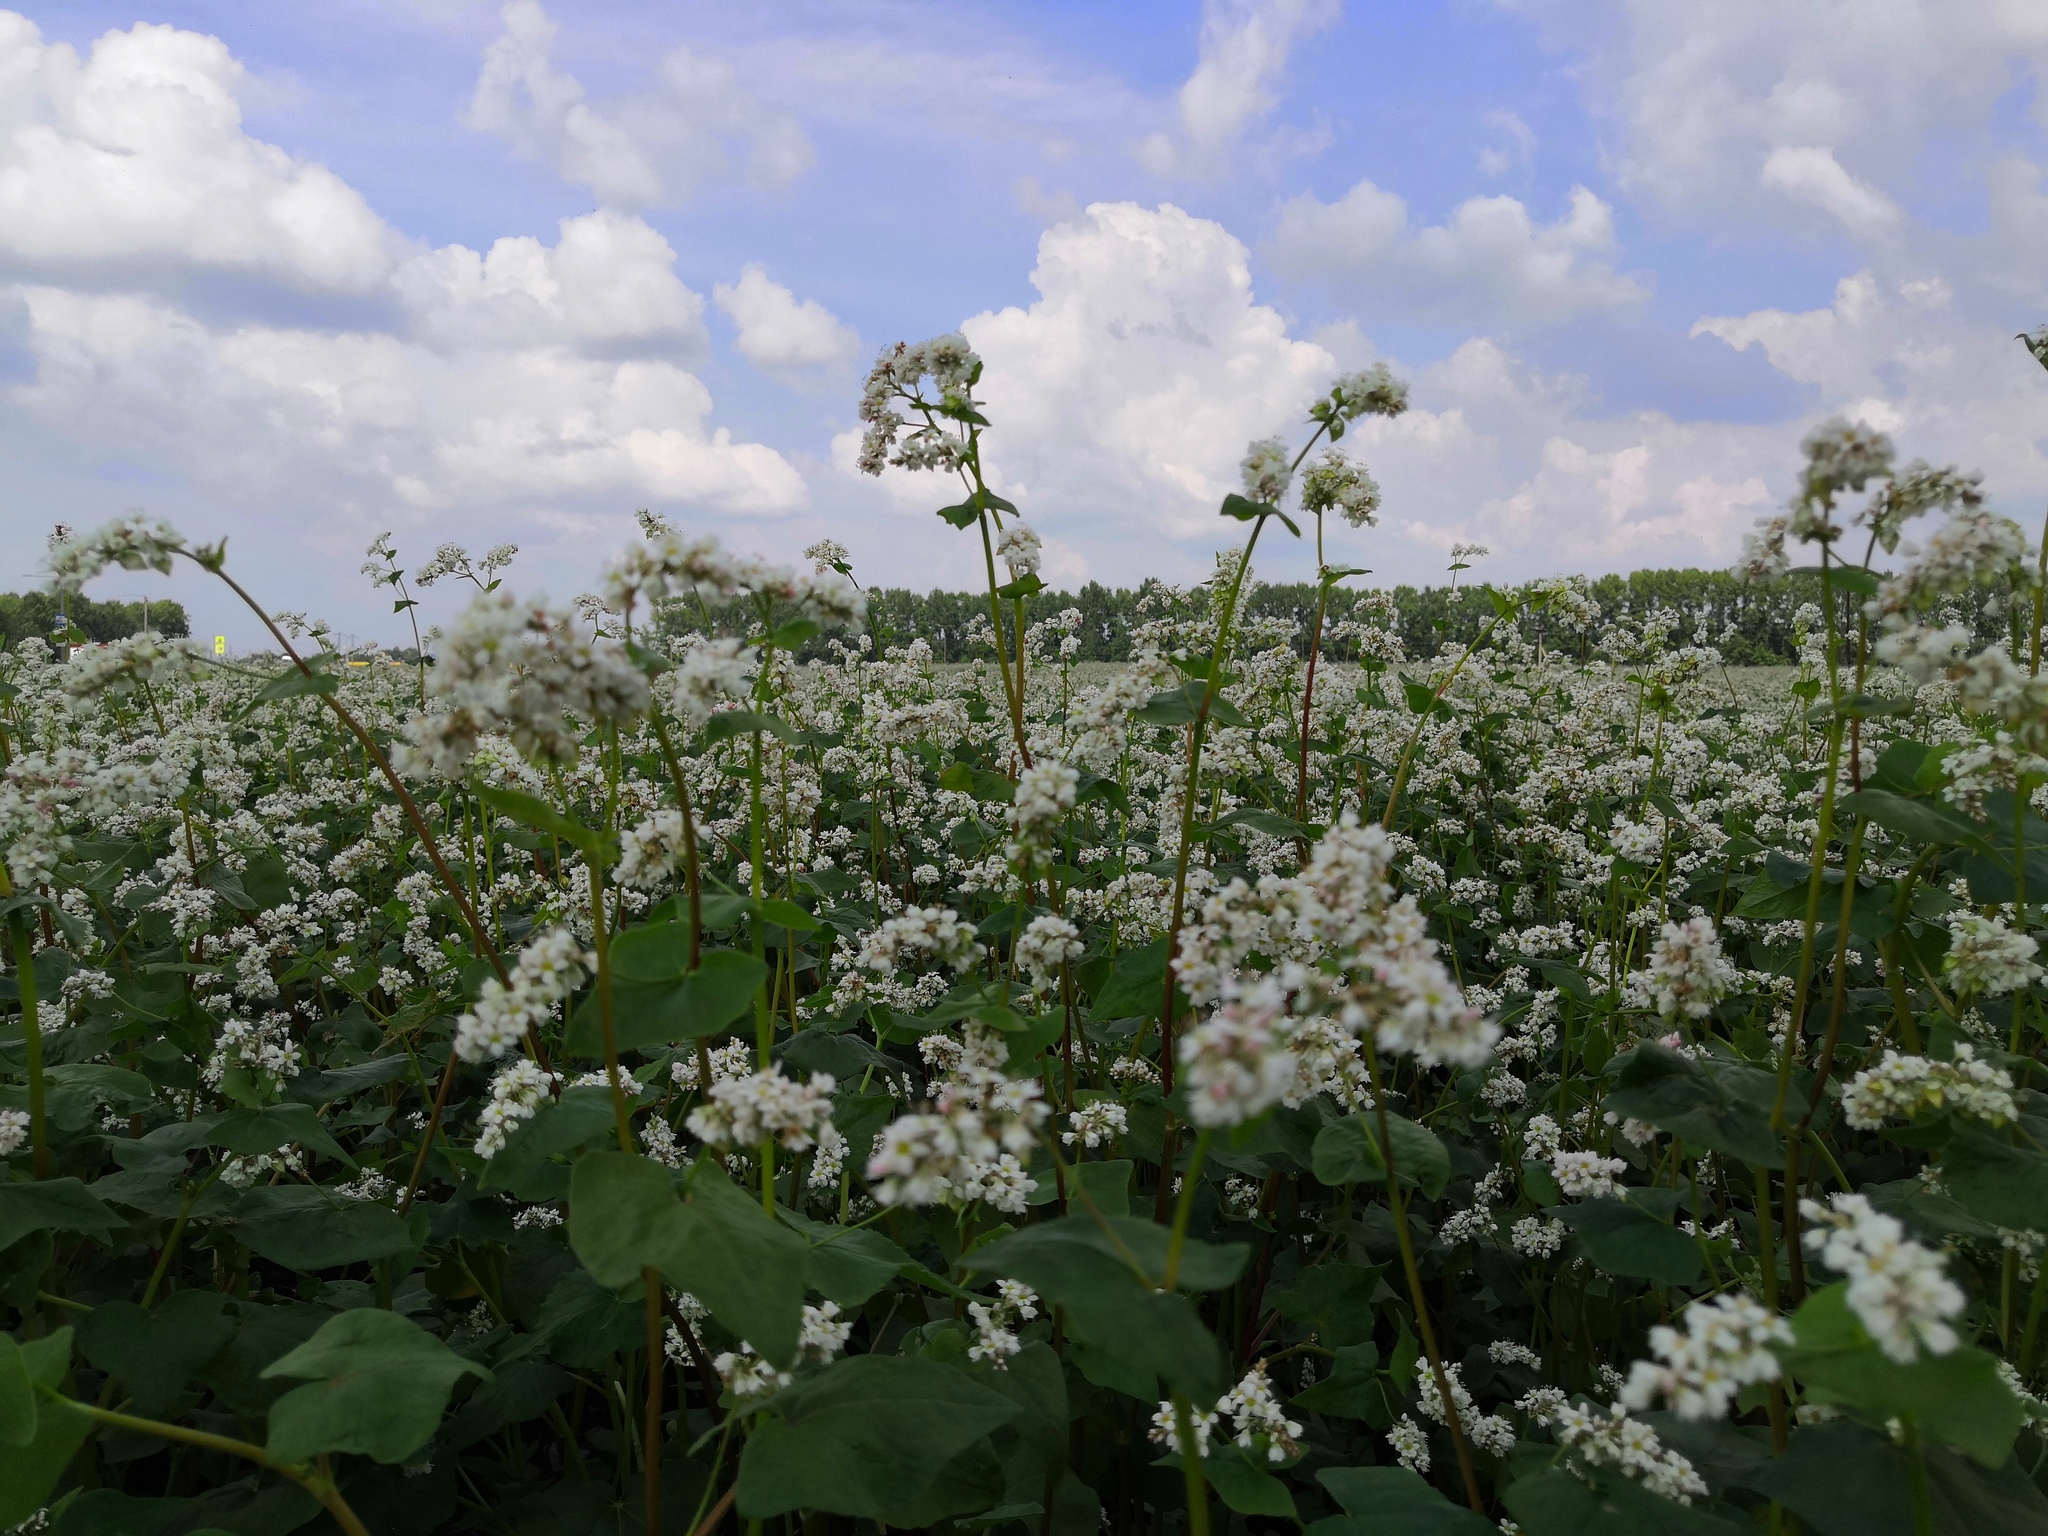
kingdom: Plantae
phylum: Tracheophyta
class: Magnoliopsida
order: Caryophyllales
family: Polygonaceae
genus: Fagopyrum
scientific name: Fagopyrum esculentum
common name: Buckwheat
